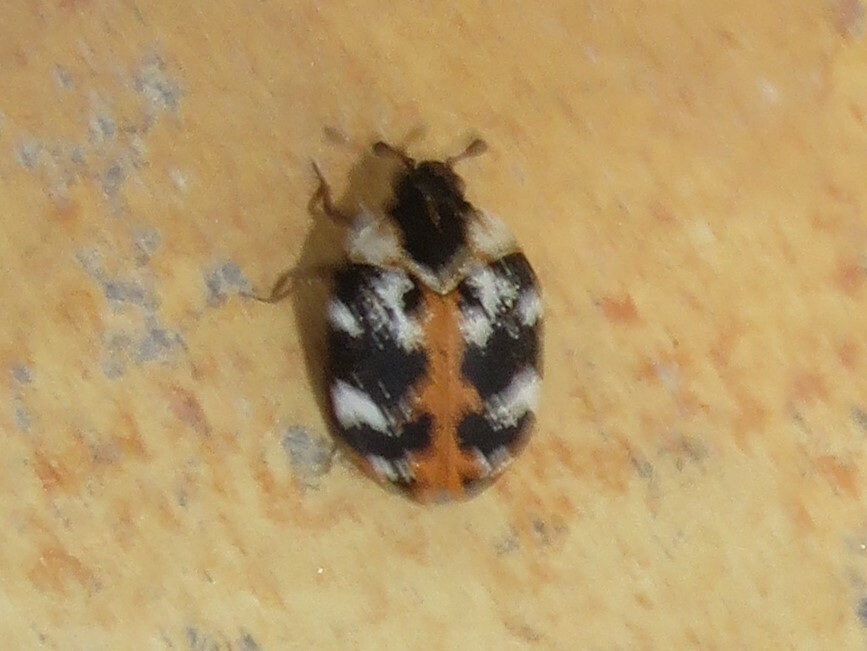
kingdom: Animalia
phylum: Arthropoda
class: Insecta
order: Coleoptera
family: Dermestidae
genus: Anthrenus
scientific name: Anthrenus scrophulariae
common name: Buffalo carpet beetle
